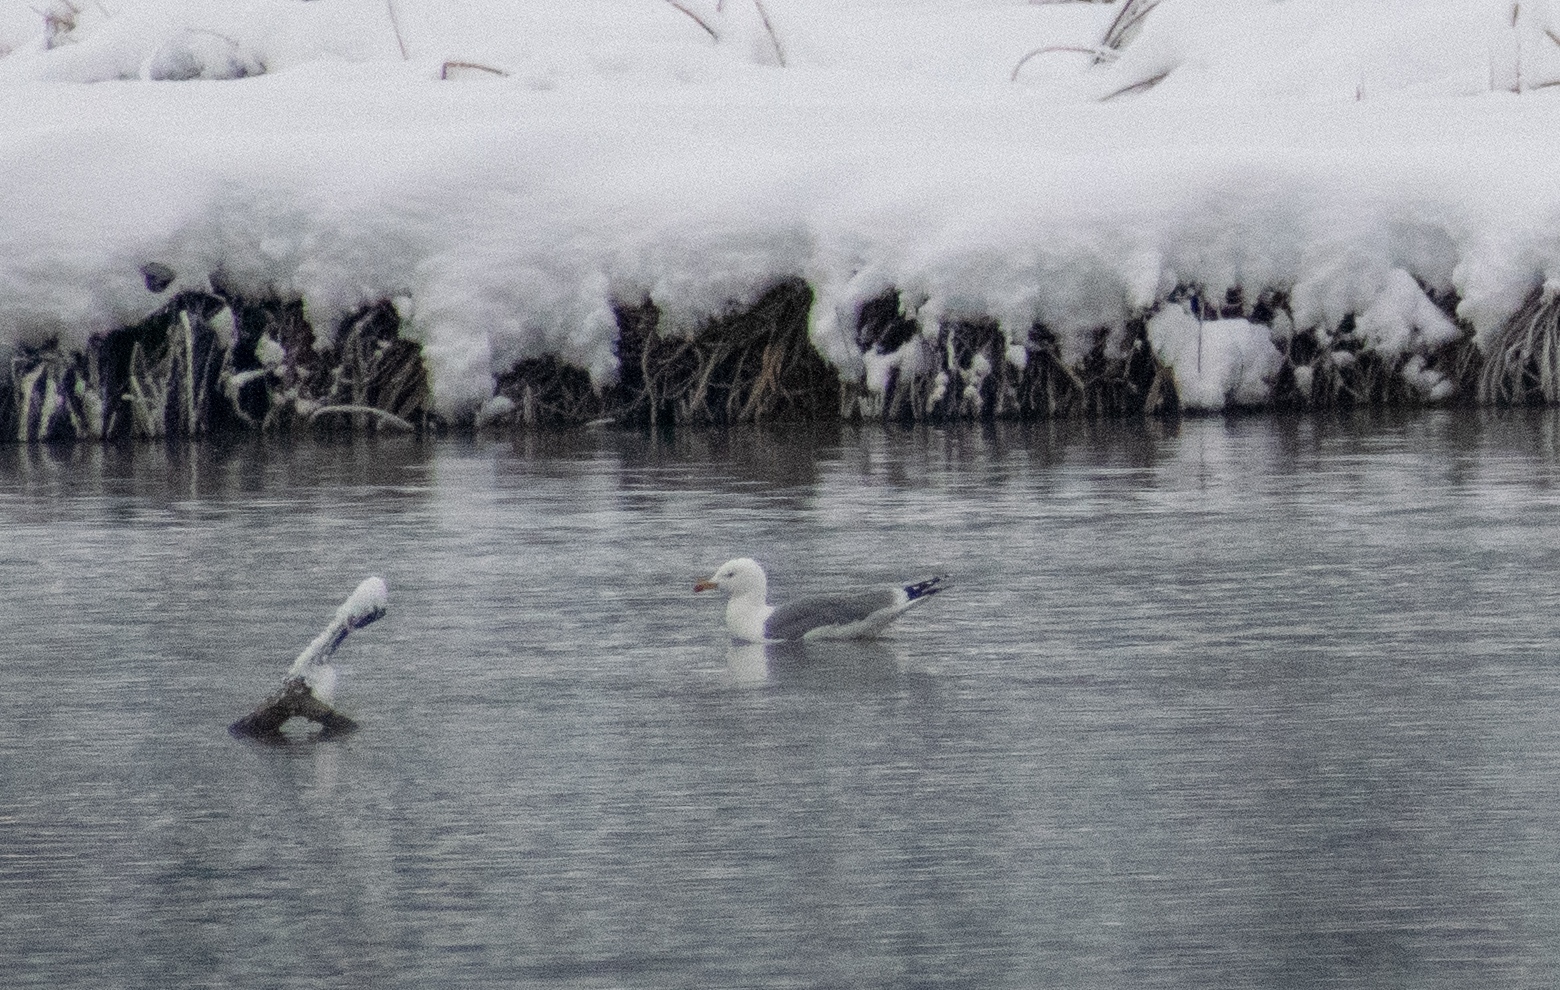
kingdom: Animalia
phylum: Chordata
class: Aves
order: Charadriiformes
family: Laridae
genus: Larus
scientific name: Larus michahellis
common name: Yellow-legged gull
